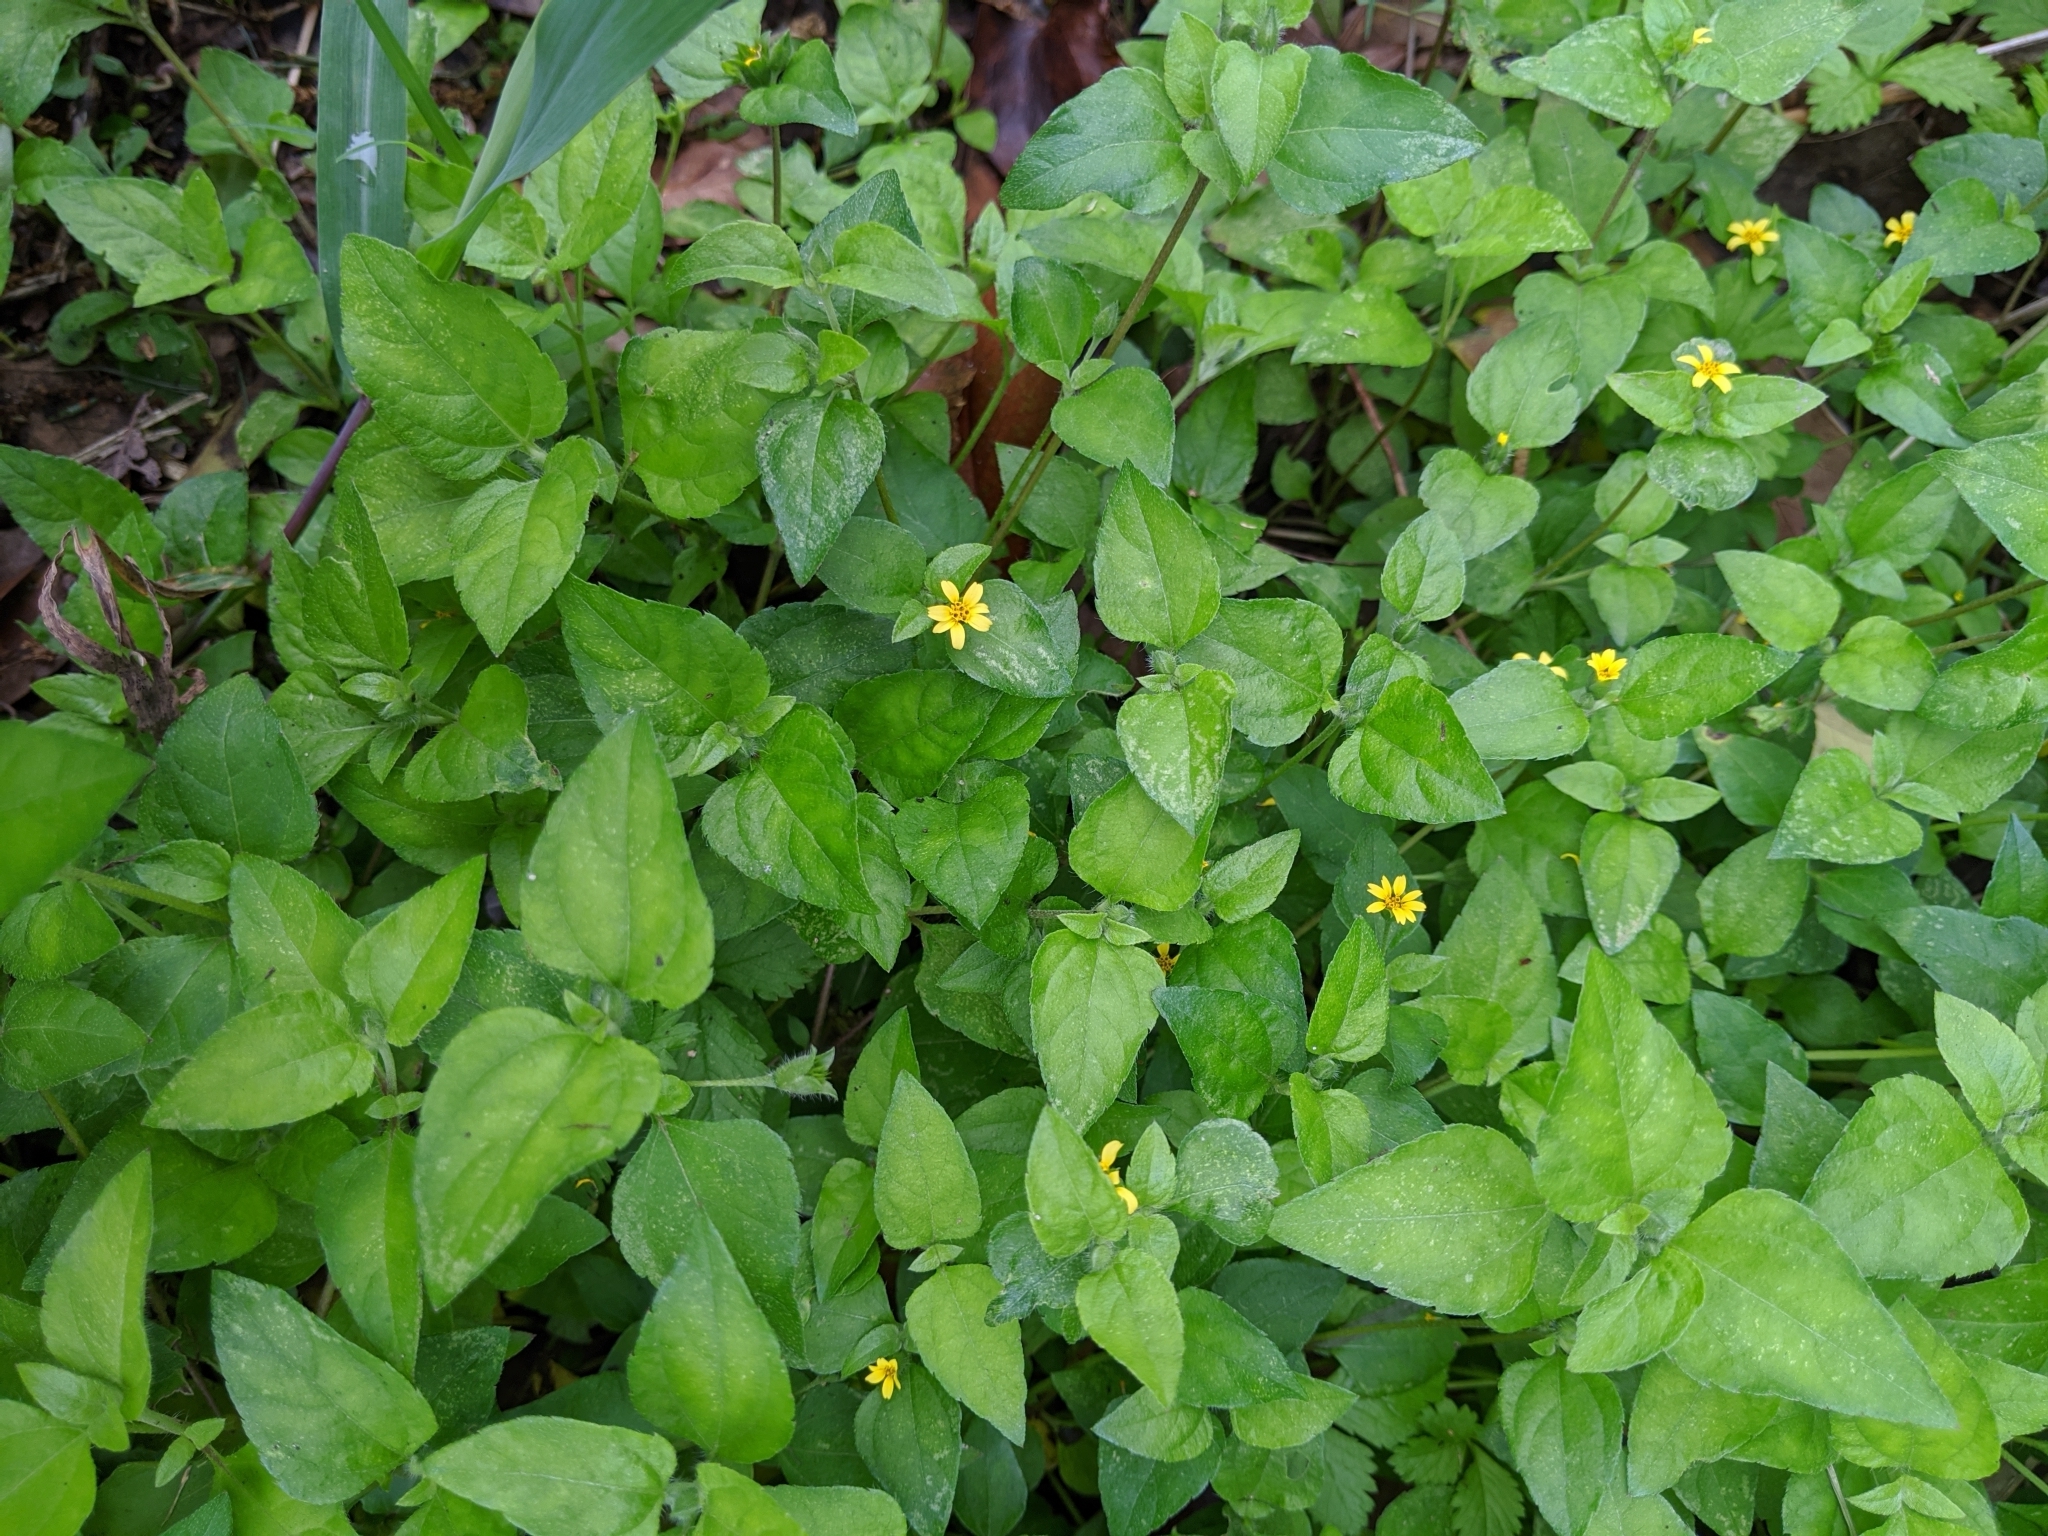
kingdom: Plantae
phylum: Tracheophyta
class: Magnoliopsida
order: Asterales
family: Asteraceae
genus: Calyptocarpus
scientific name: Calyptocarpus vialis
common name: Straggler daisy
